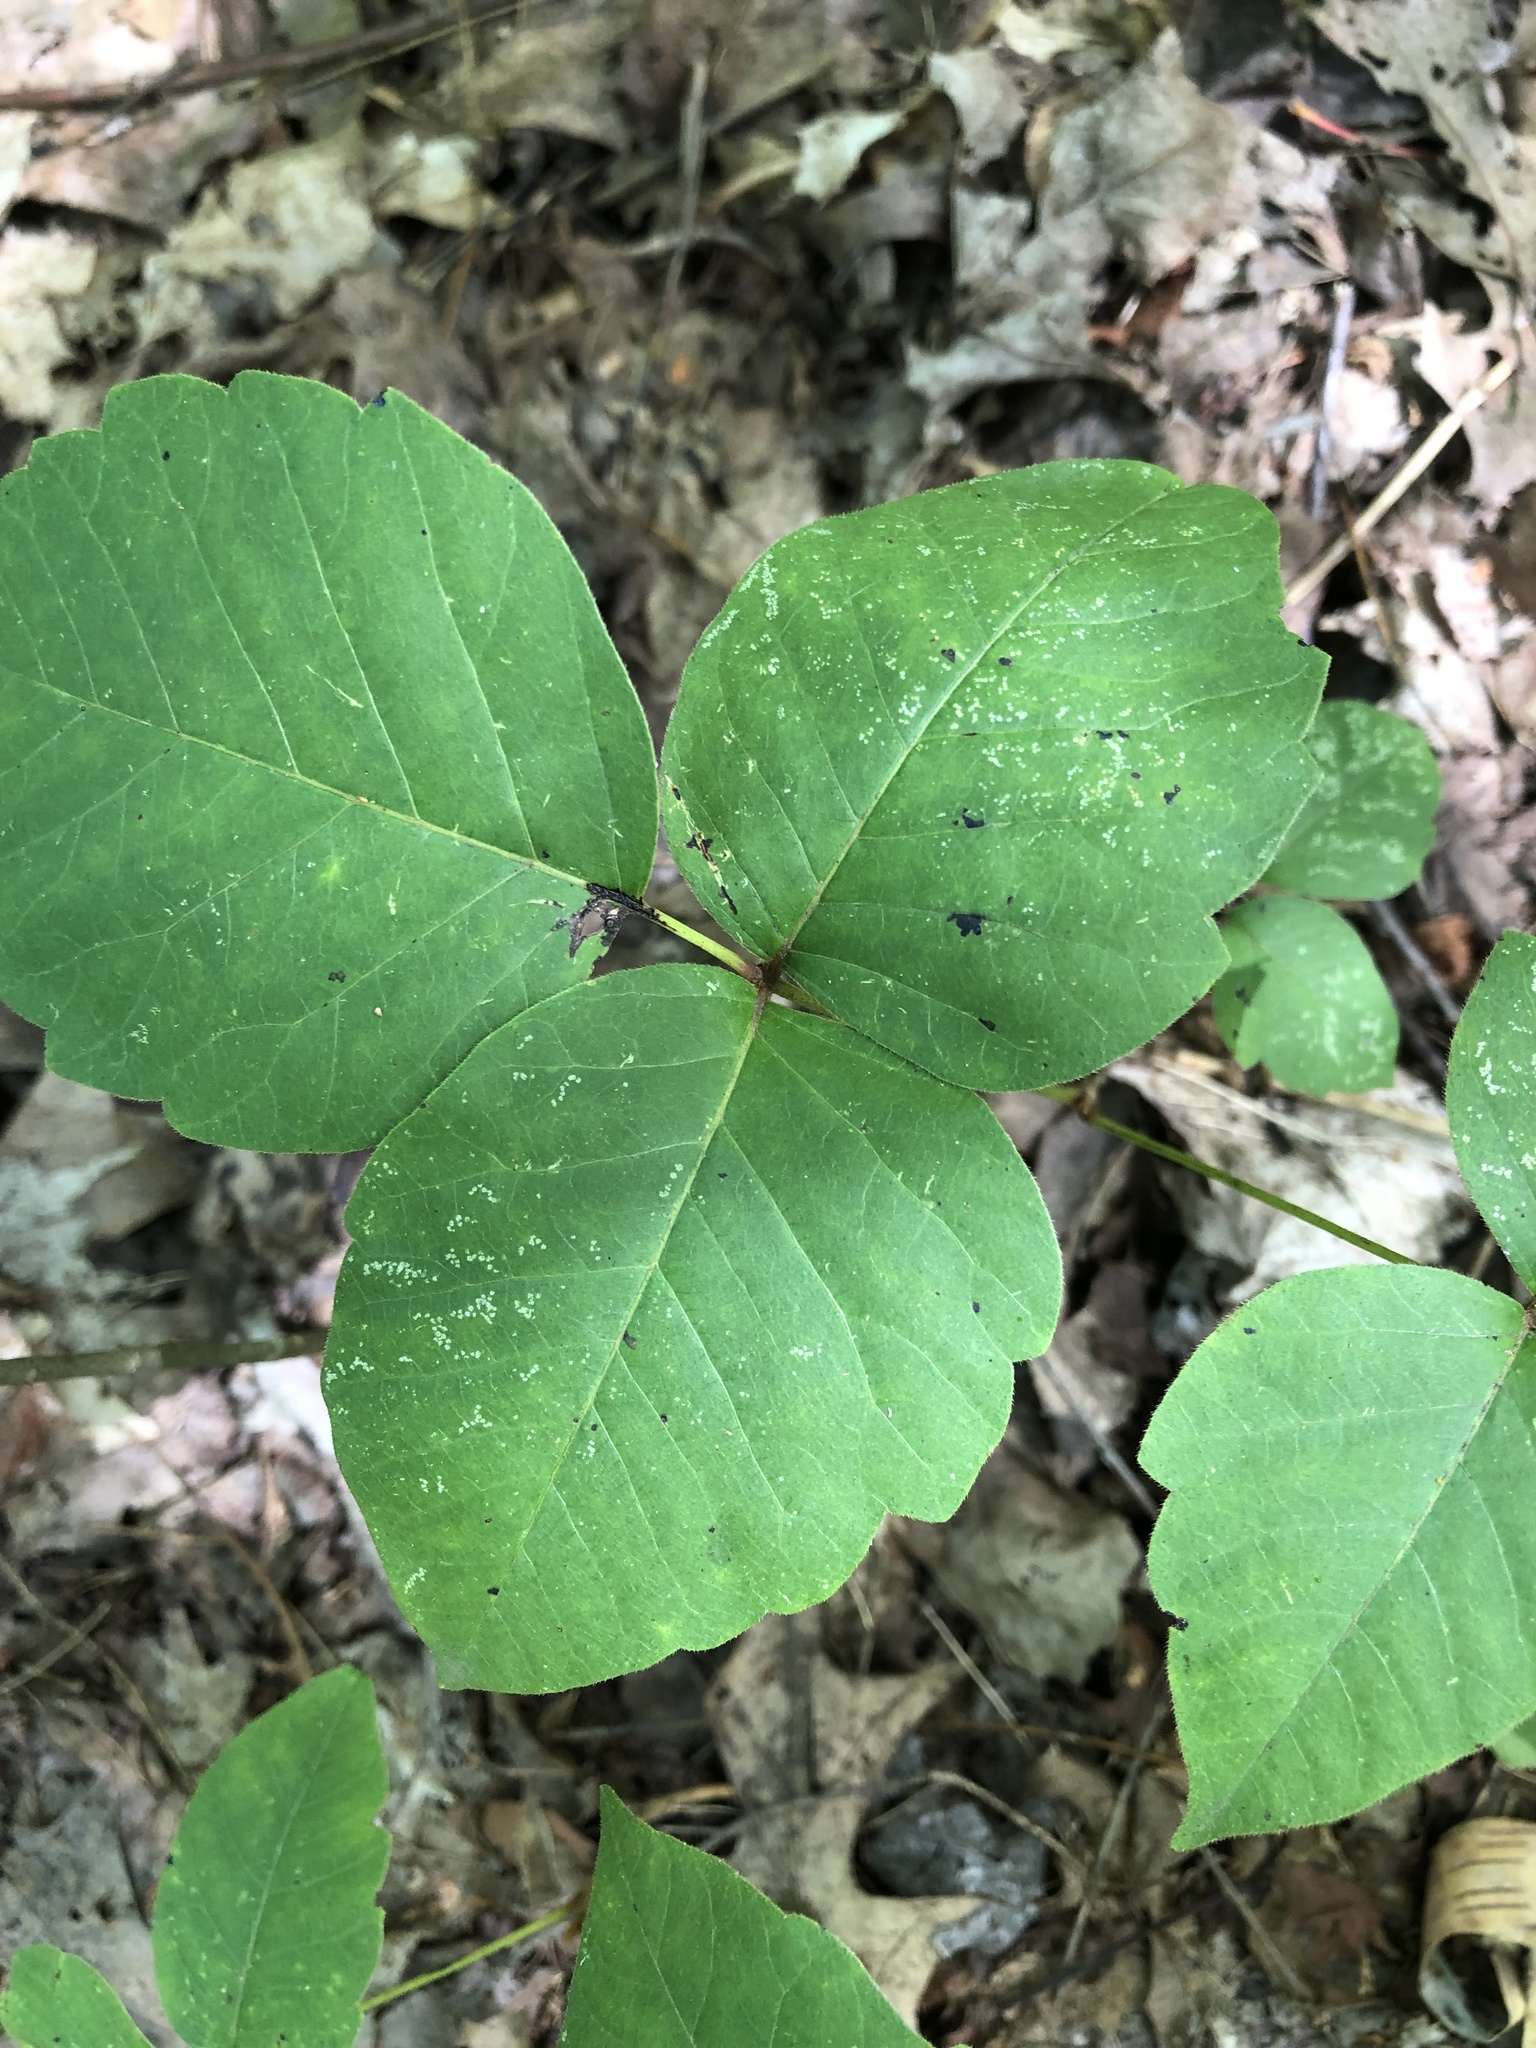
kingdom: Plantae
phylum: Tracheophyta
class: Magnoliopsida
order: Sapindales
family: Anacardiaceae
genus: Toxicodendron
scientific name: Toxicodendron rydbergii
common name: Rydberg's poison-ivy
